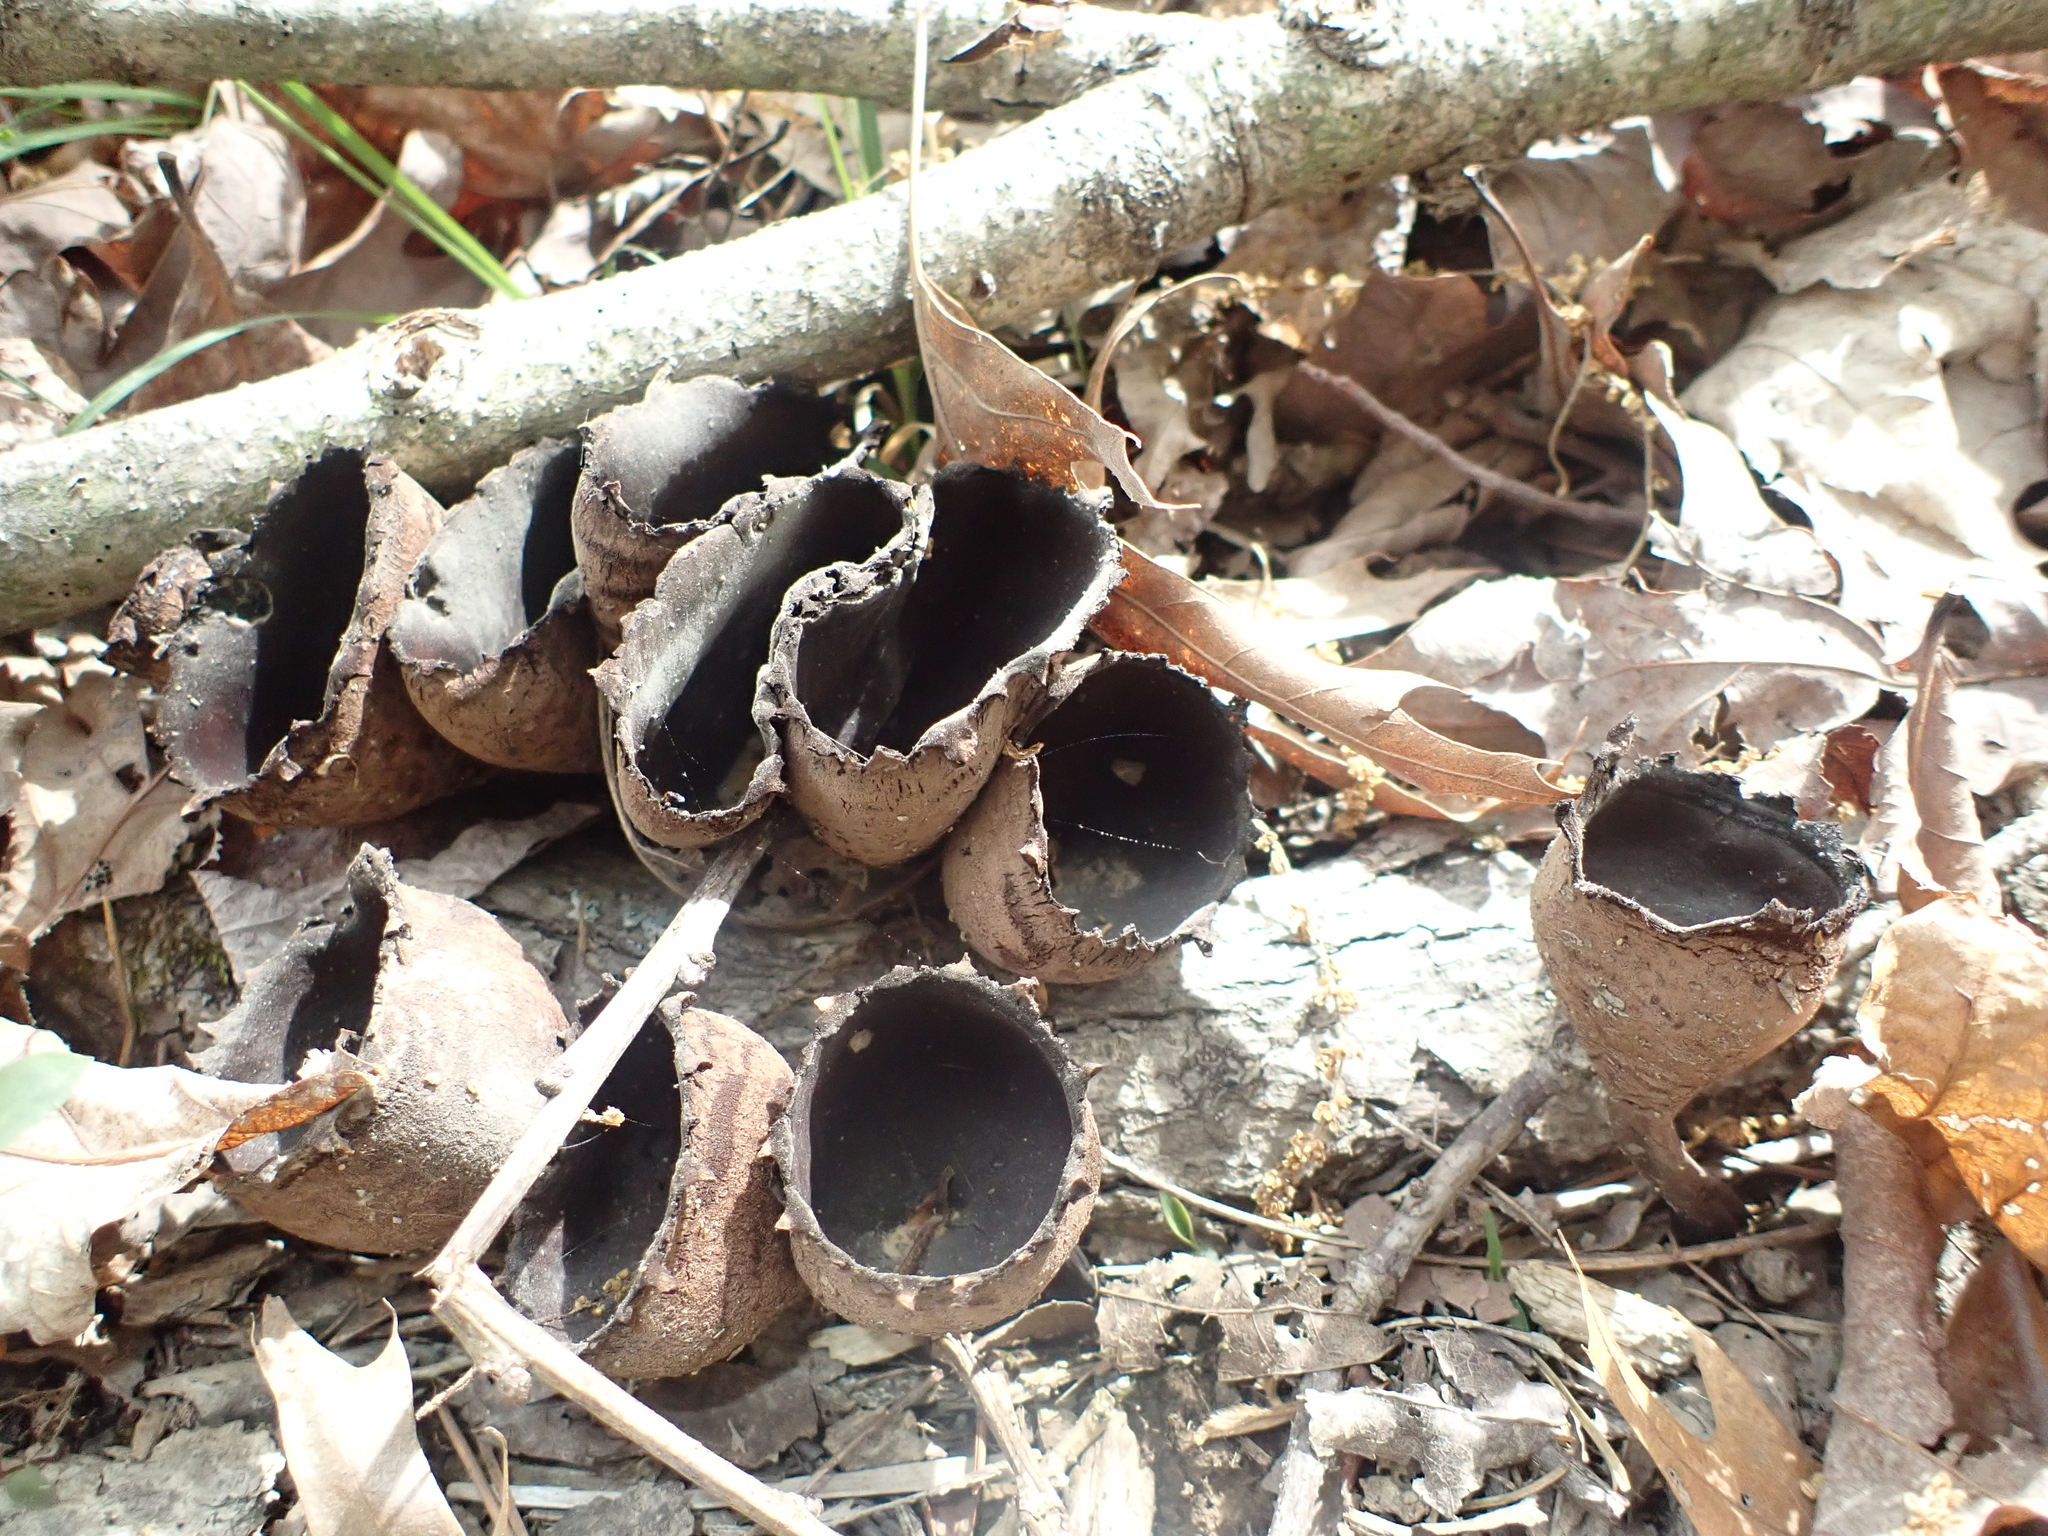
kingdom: Fungi
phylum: Ascomycota
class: Pezizomycetes
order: Pezizales
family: Sarcosomataceae
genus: Urnula
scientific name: Urnula craterium
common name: Devil's urn
